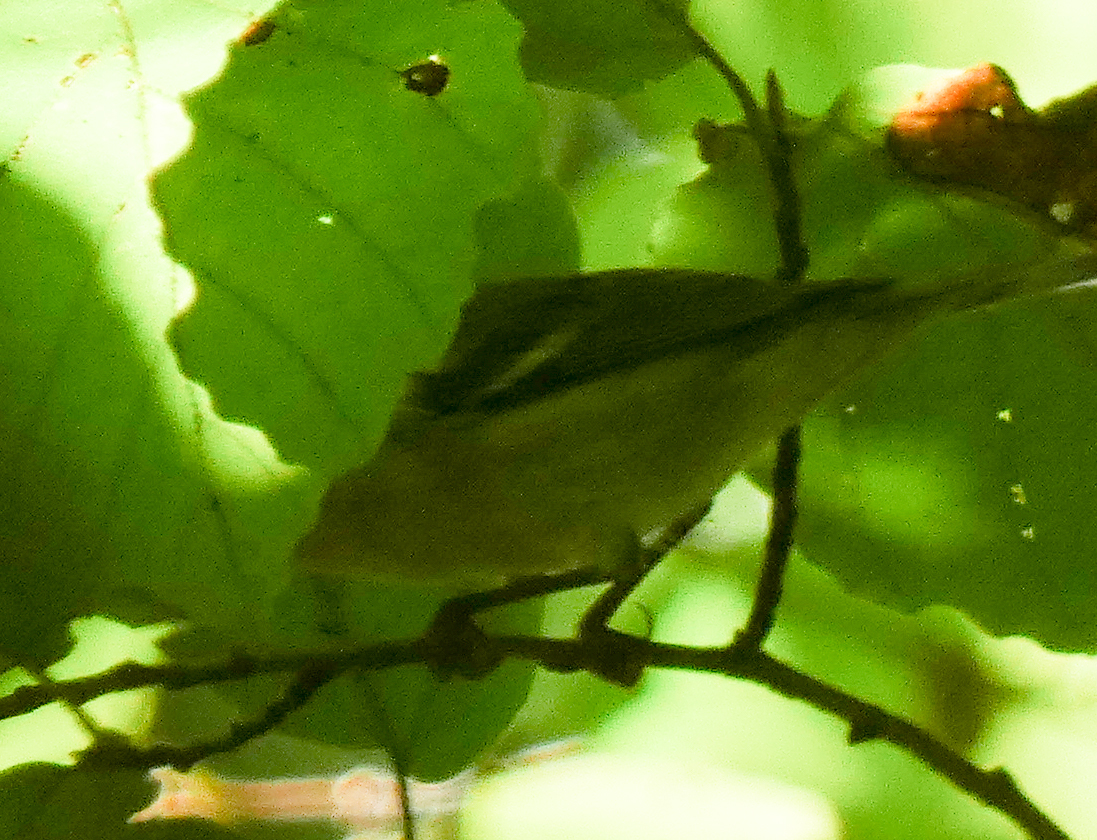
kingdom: Animalia
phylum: Chordata
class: Aves
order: Passeriformes
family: Parulidae
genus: Setophaga
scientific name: Setophaga americana
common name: Northern parula
